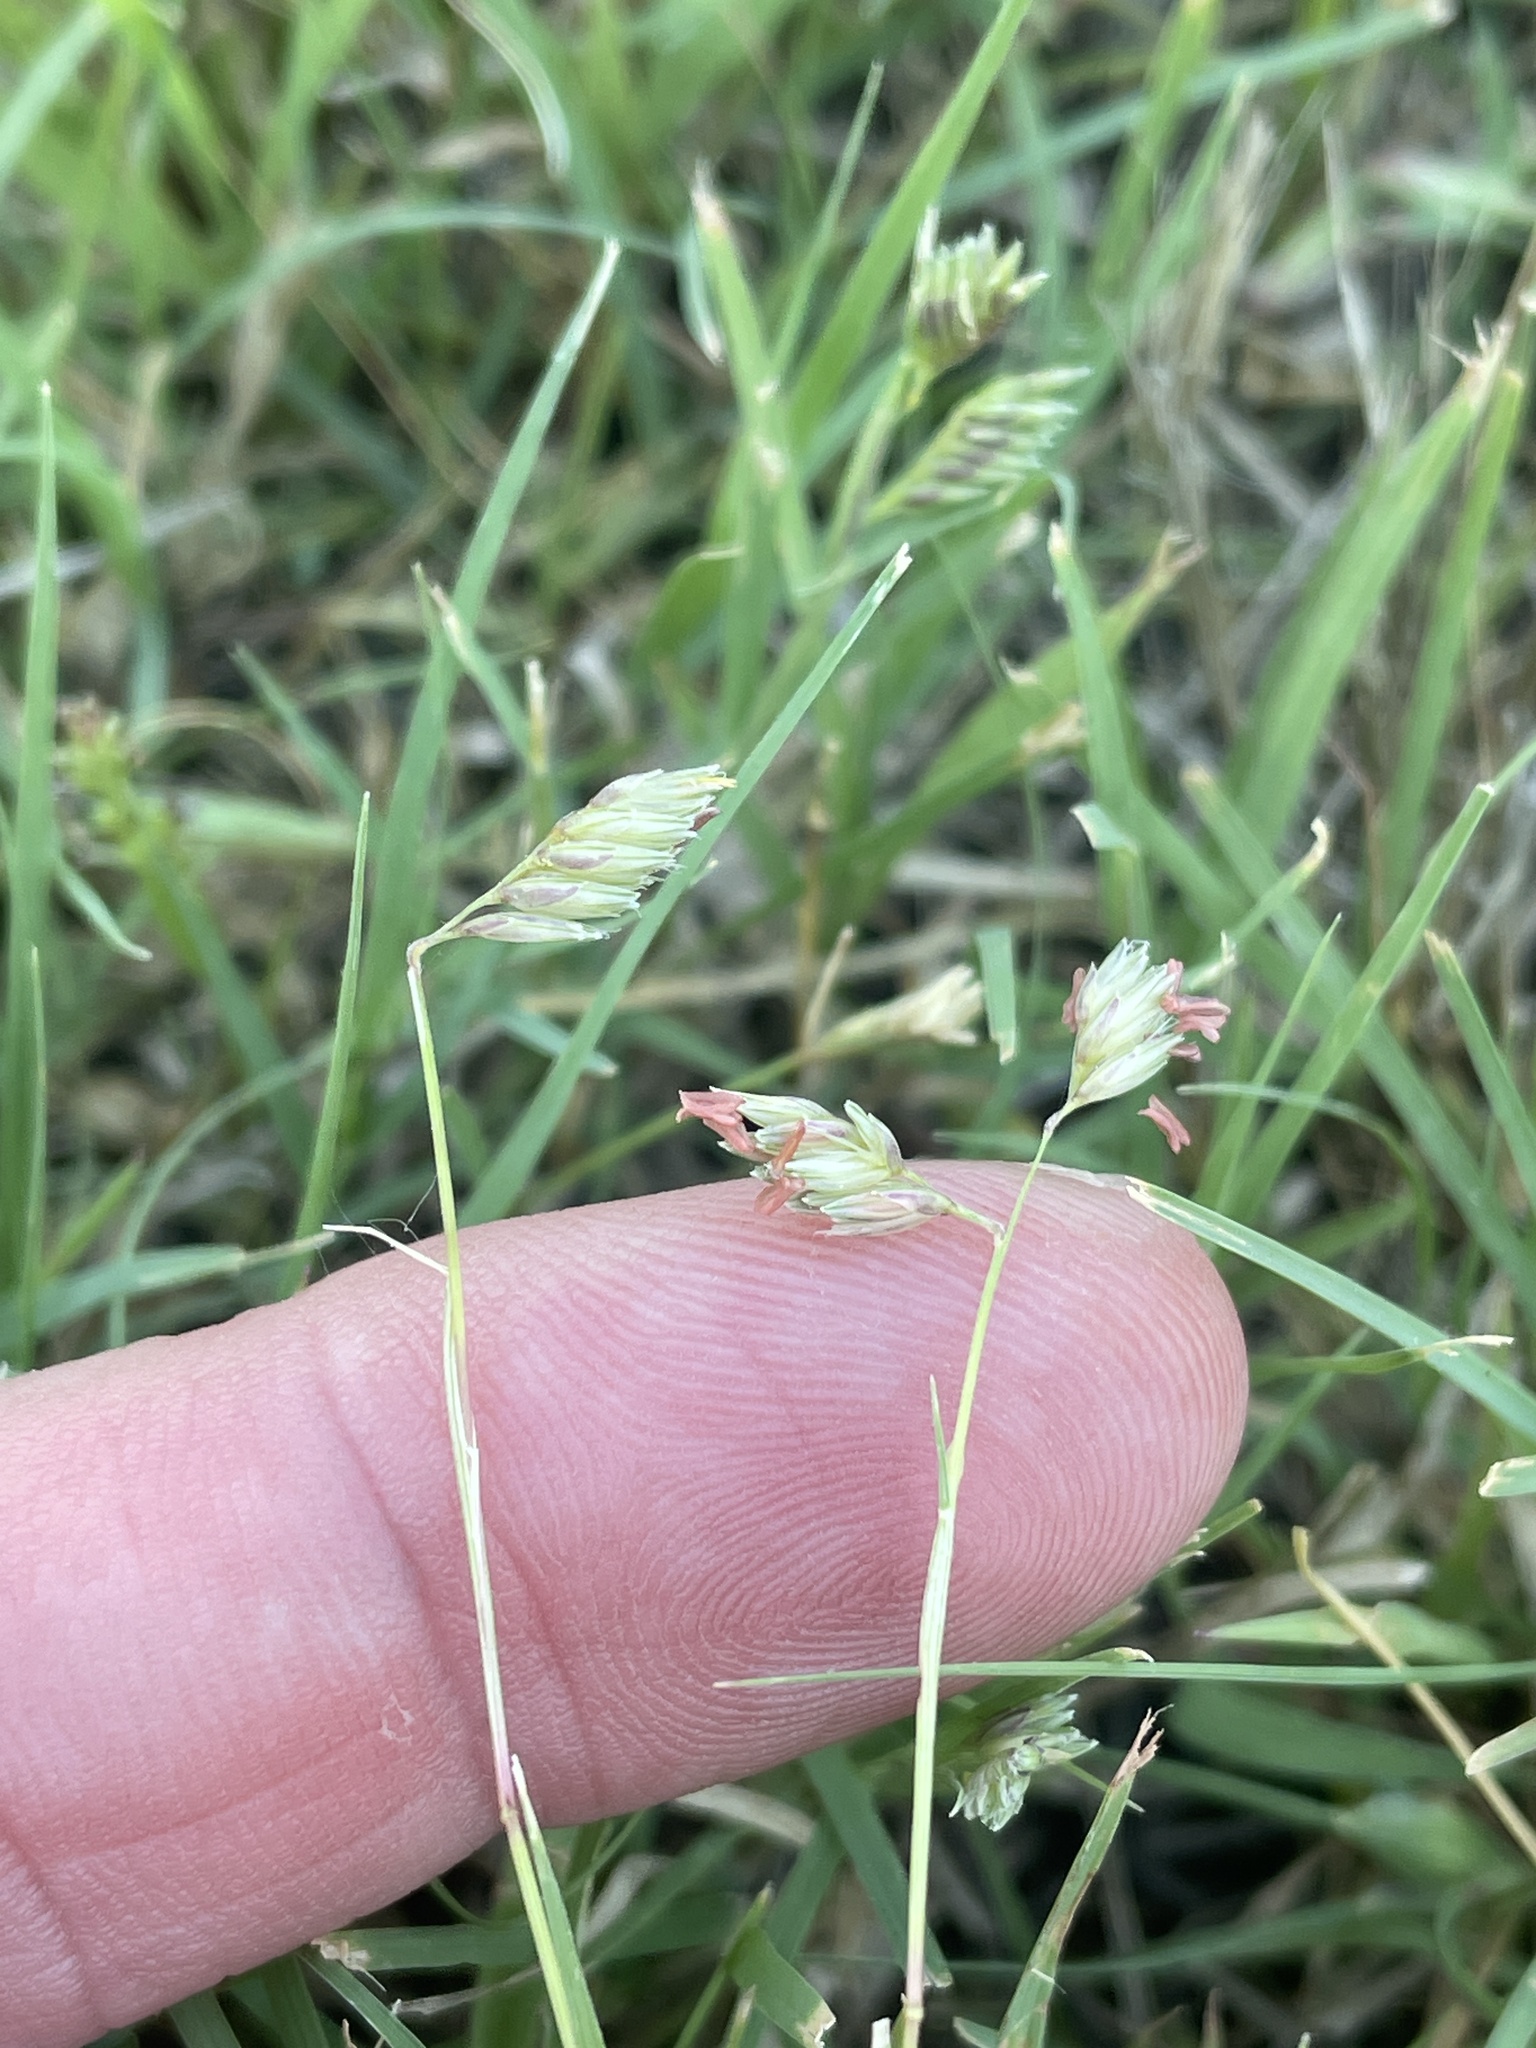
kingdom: Plantae
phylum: Tracheophyta
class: Liliopsida
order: Poales
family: Poaceae
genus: Bouteloua
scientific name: Bouteloua dactyloides
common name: Buffalo grass
